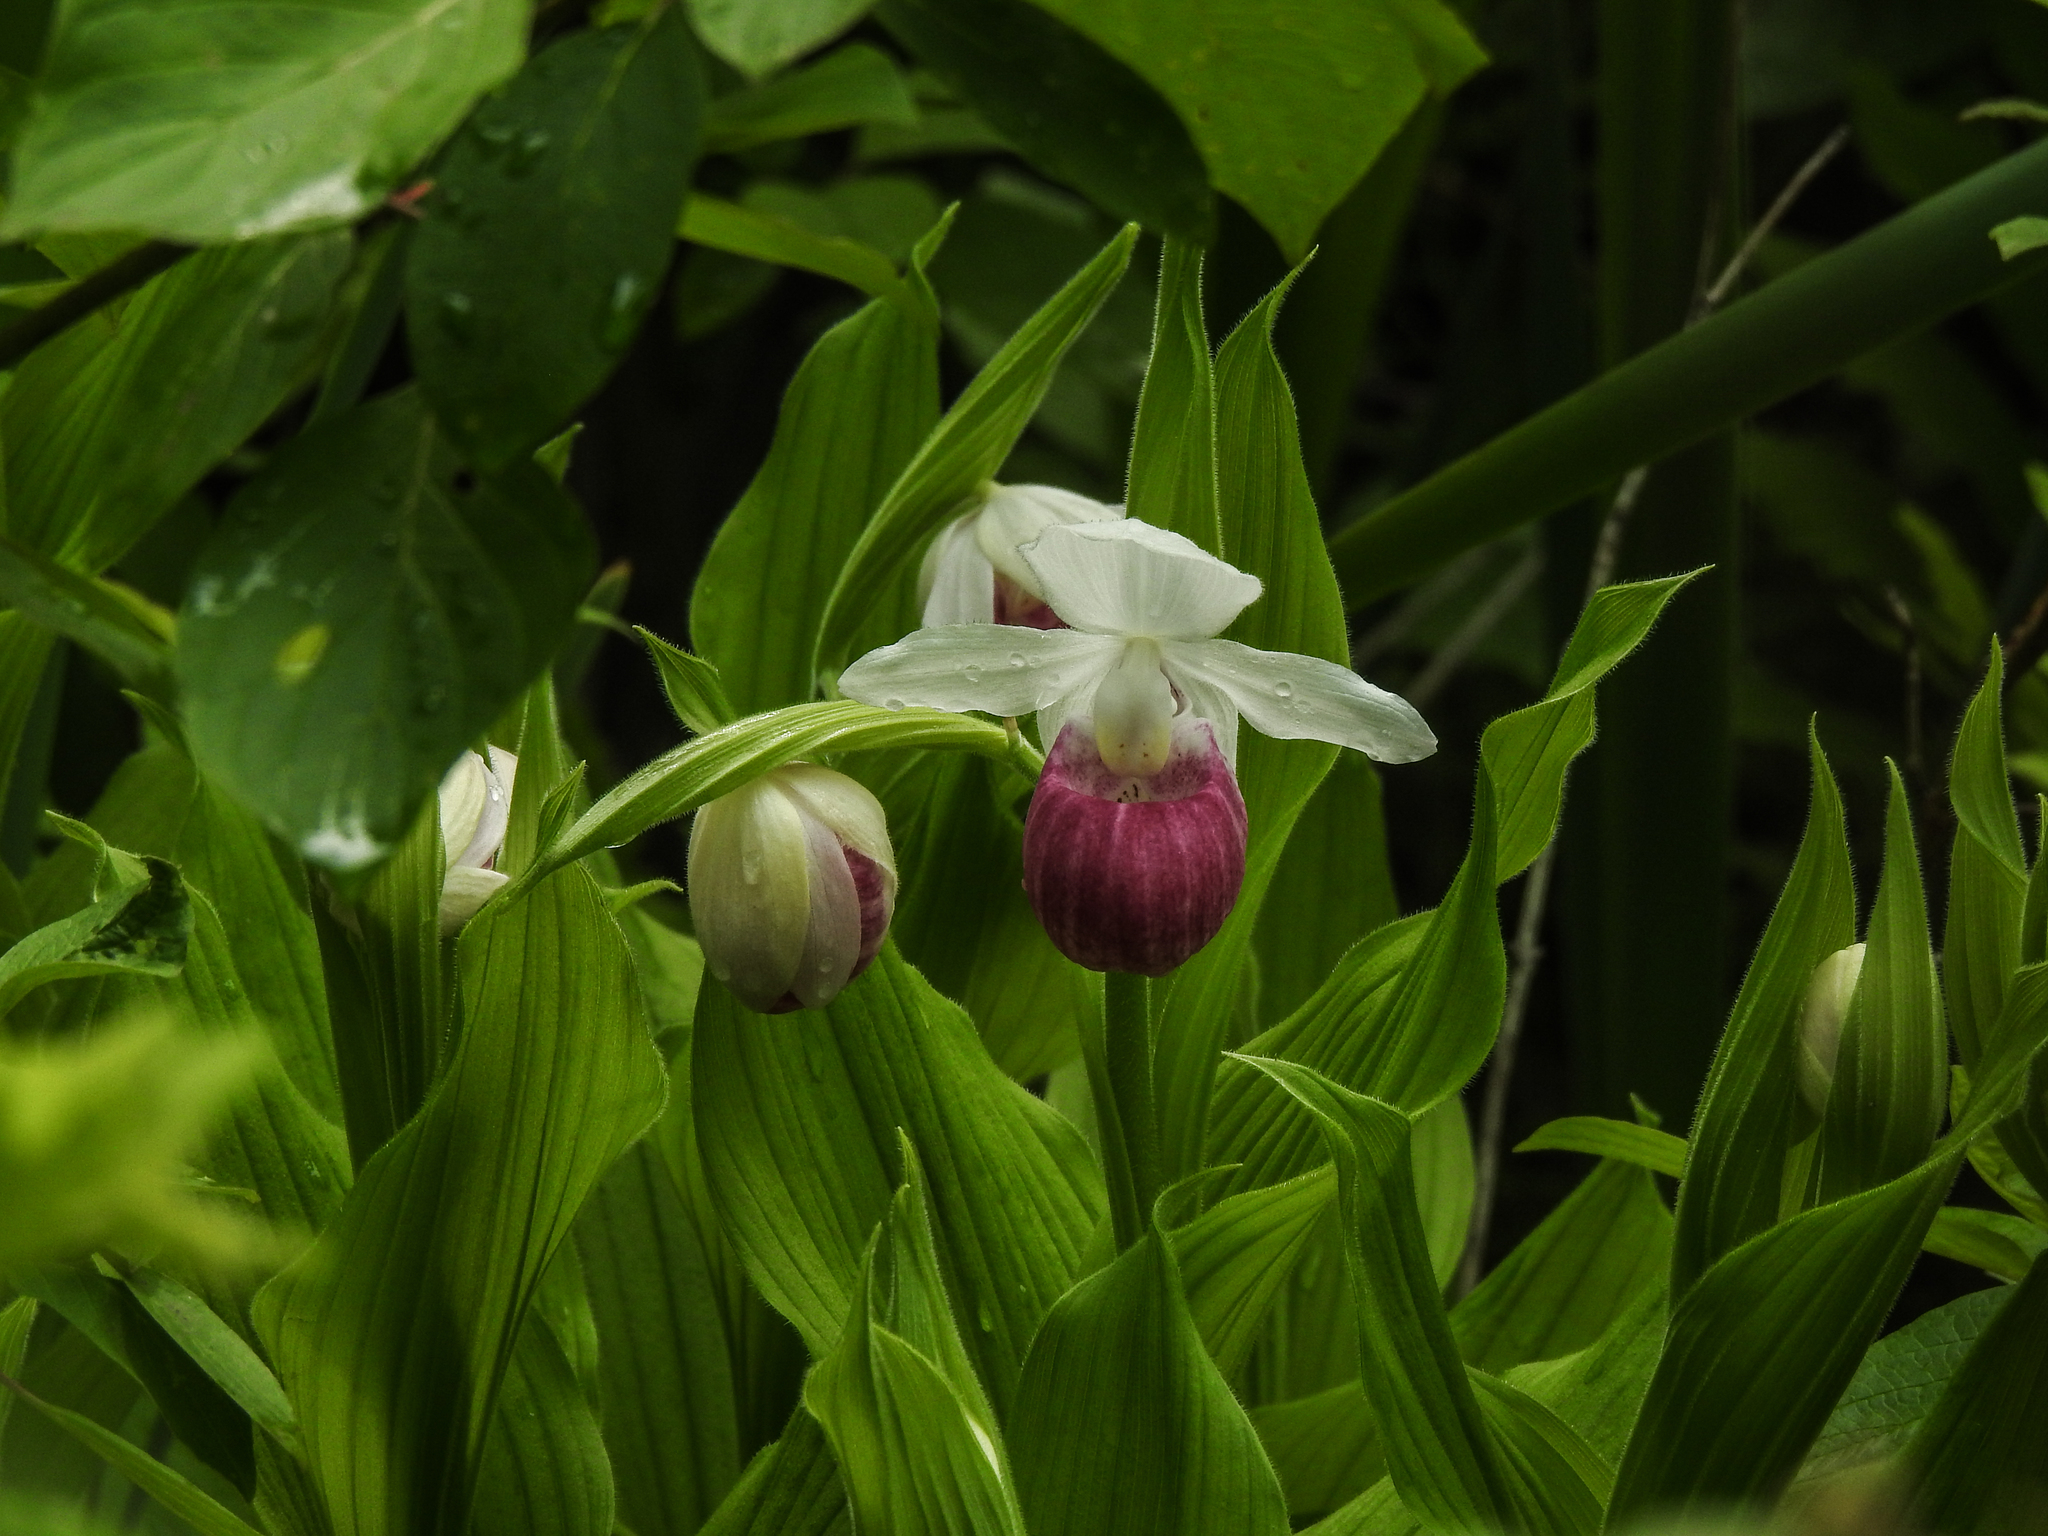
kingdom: Plantae
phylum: Tracheophyta
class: Liliopsida
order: Asparagales
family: Orchidaceae
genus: Cypripedium
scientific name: Cypripedium reginae
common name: Queen lady's-slipper
